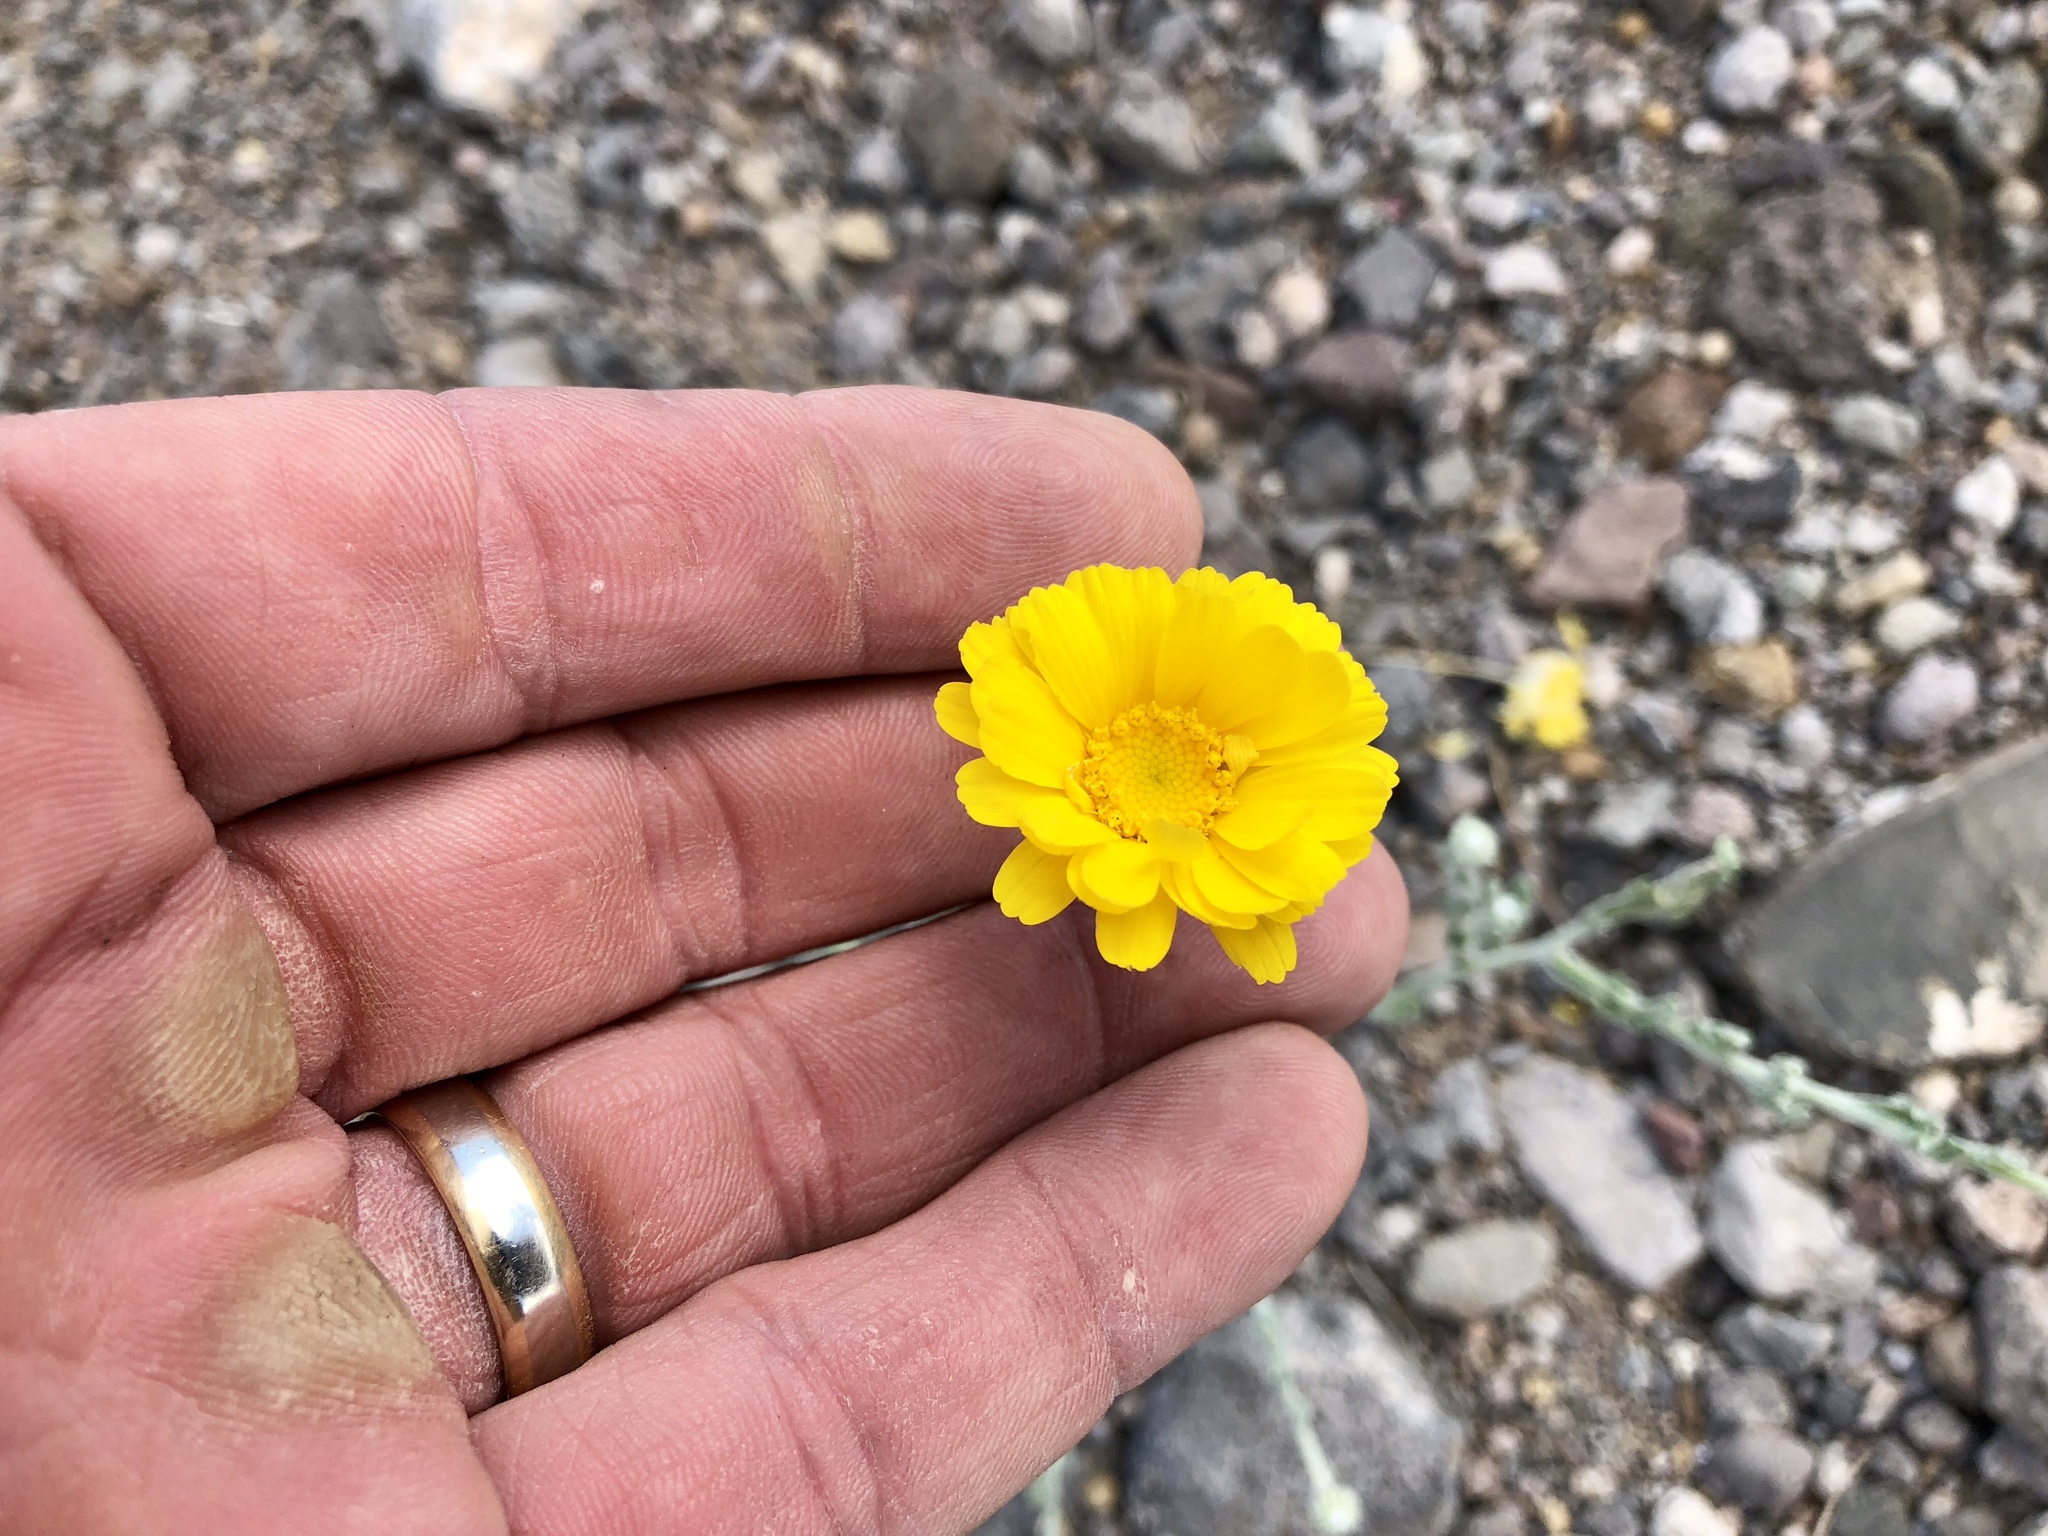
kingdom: Plantae
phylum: Tracheophyta
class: Magnoliopsida
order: Asterales
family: Asteraceae
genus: Baileya
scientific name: Baileya multiradiata
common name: Desert-marigold
